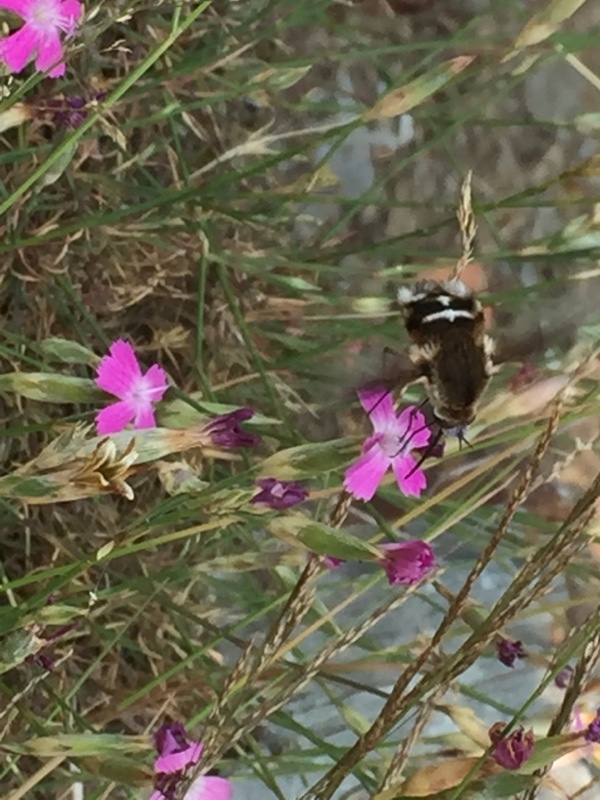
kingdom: Animalia
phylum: Arthropoda
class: Insecta
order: Diptera
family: Bombyliidae
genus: Bombylius
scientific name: Bombylius cruciatus
